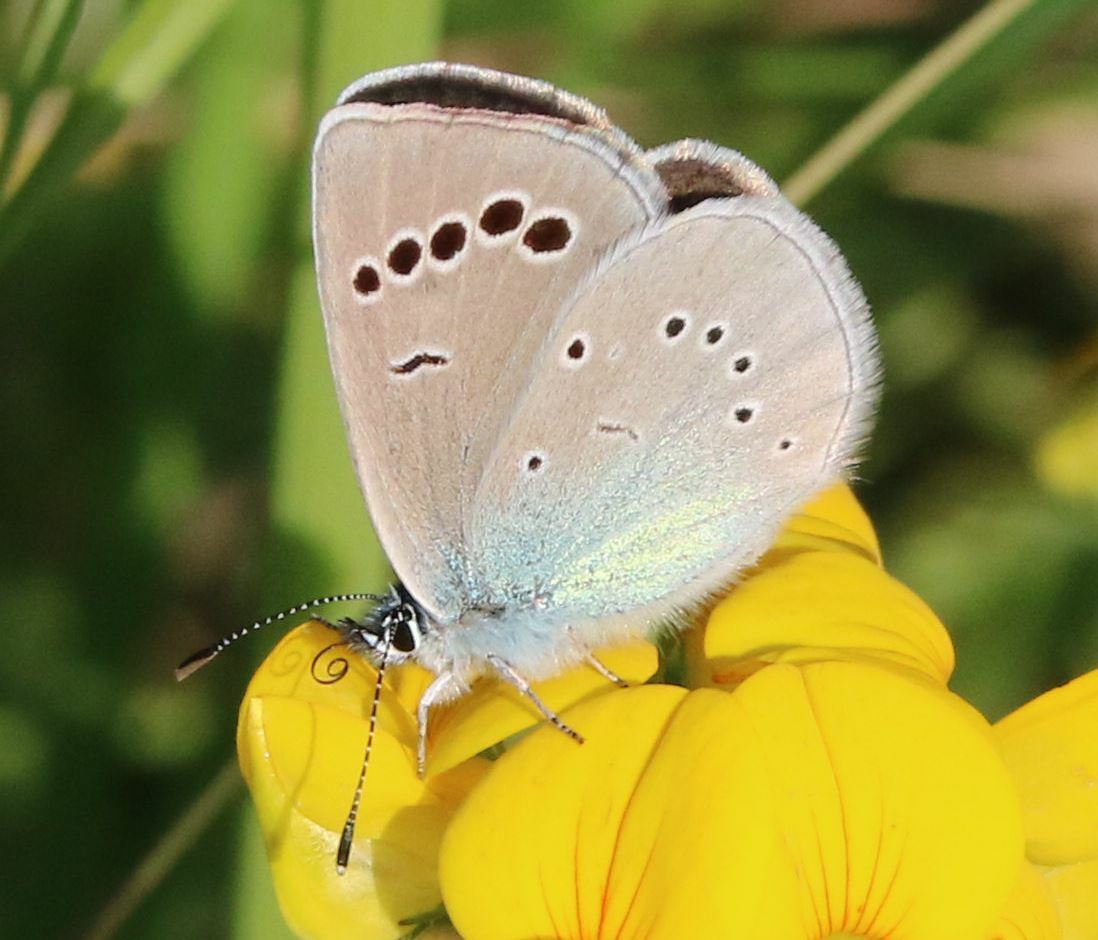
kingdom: Animalia
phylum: Arthropoda
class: Insecta
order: Lepidoptera
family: Lycaenidae
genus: Glaucopsyche
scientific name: Glaucopsyche alexis
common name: Green-underside blue
